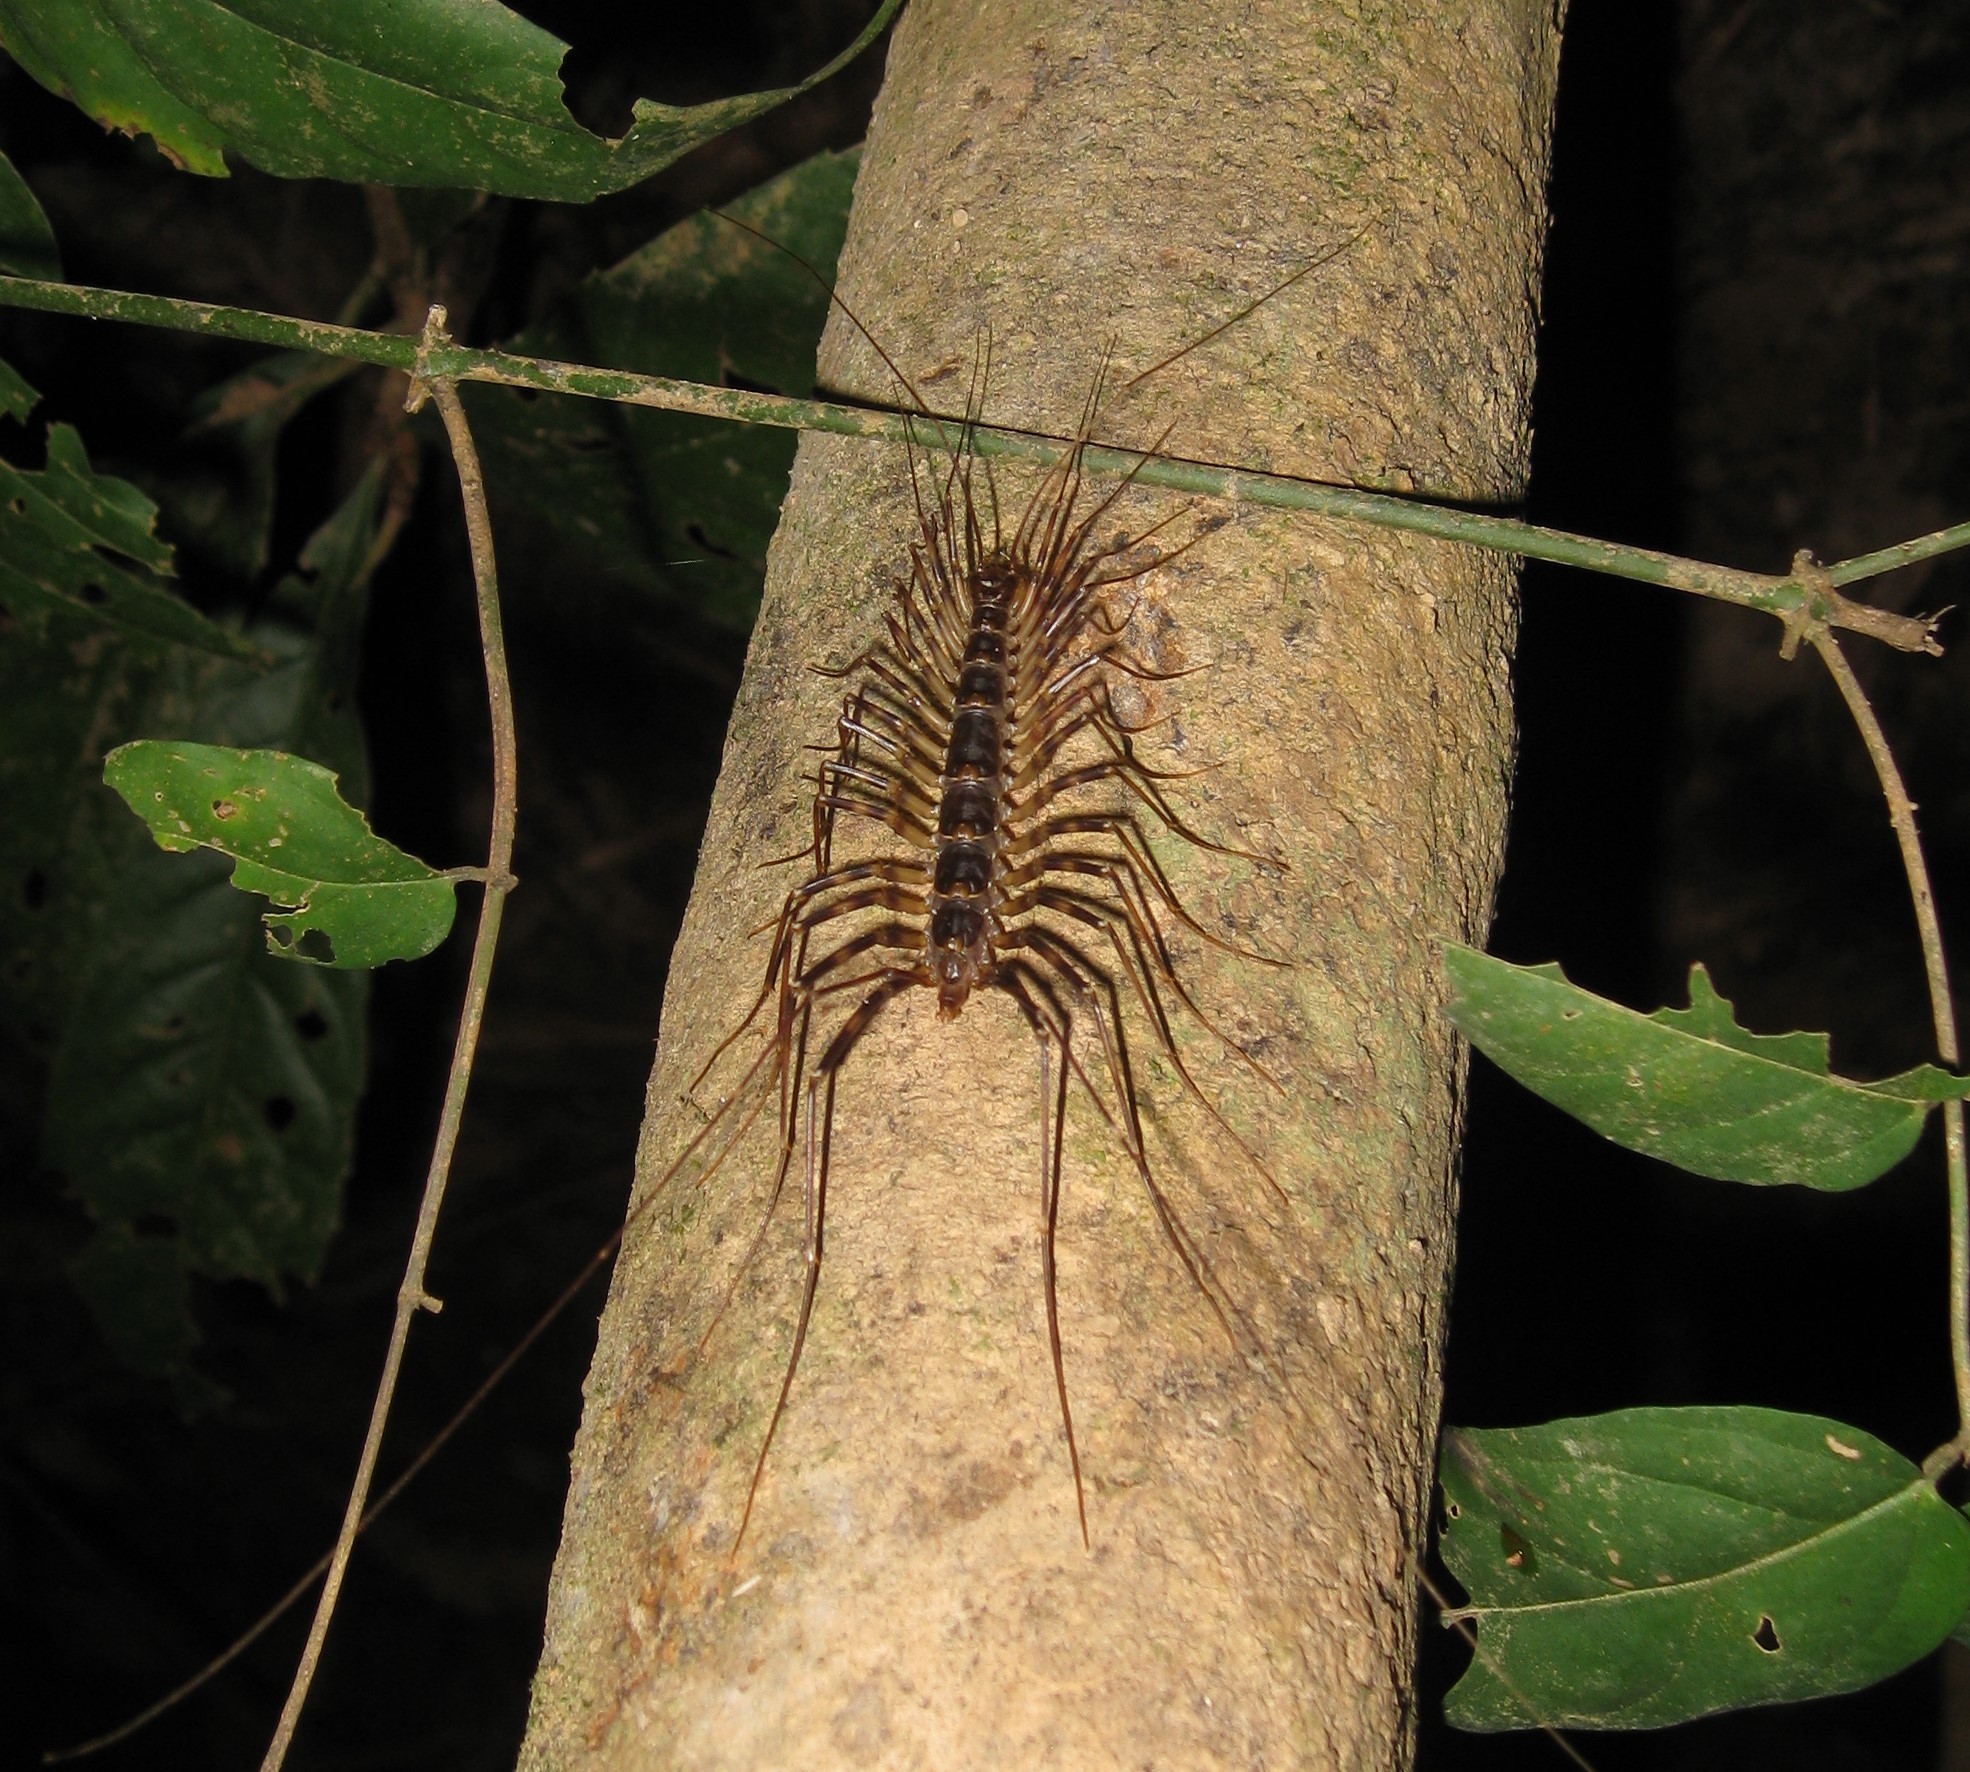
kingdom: Animalia
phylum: Arthropoda
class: Chilopoda
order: Scutigeromorpha
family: Scutigeridae
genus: Thereuopoda
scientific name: Thereuopoda longicornis
